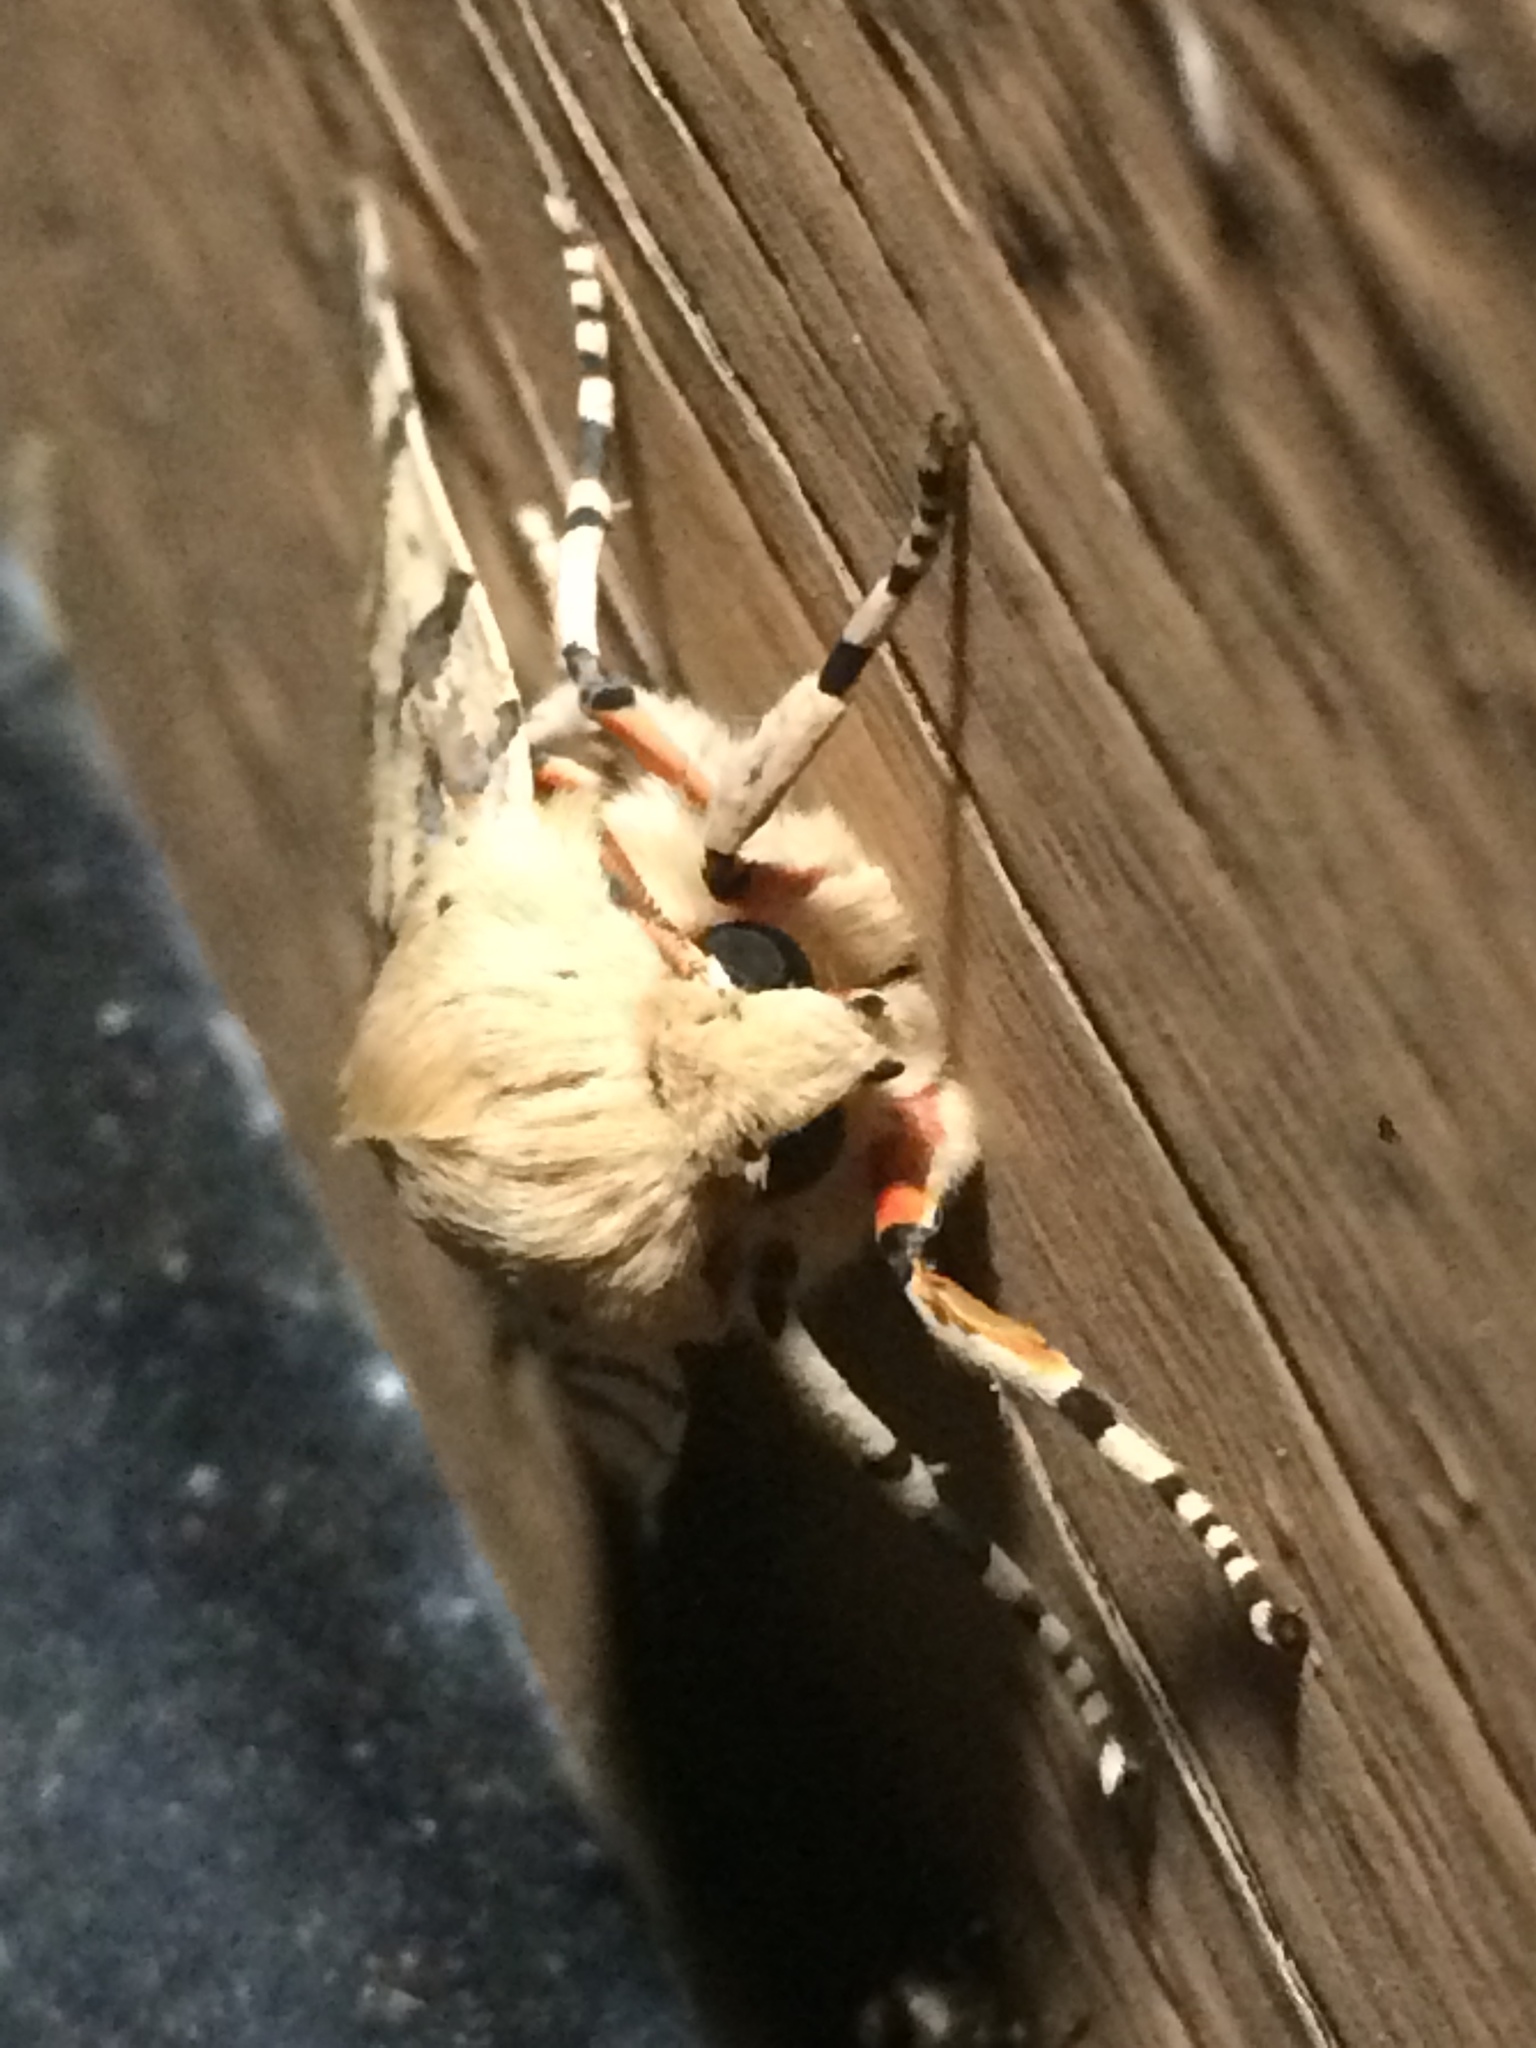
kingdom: Animalia
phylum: Arthropoda
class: Insecta
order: Lepidoptera
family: Erebidae
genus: Hemihyalea
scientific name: Hemihyalea edwardsii
